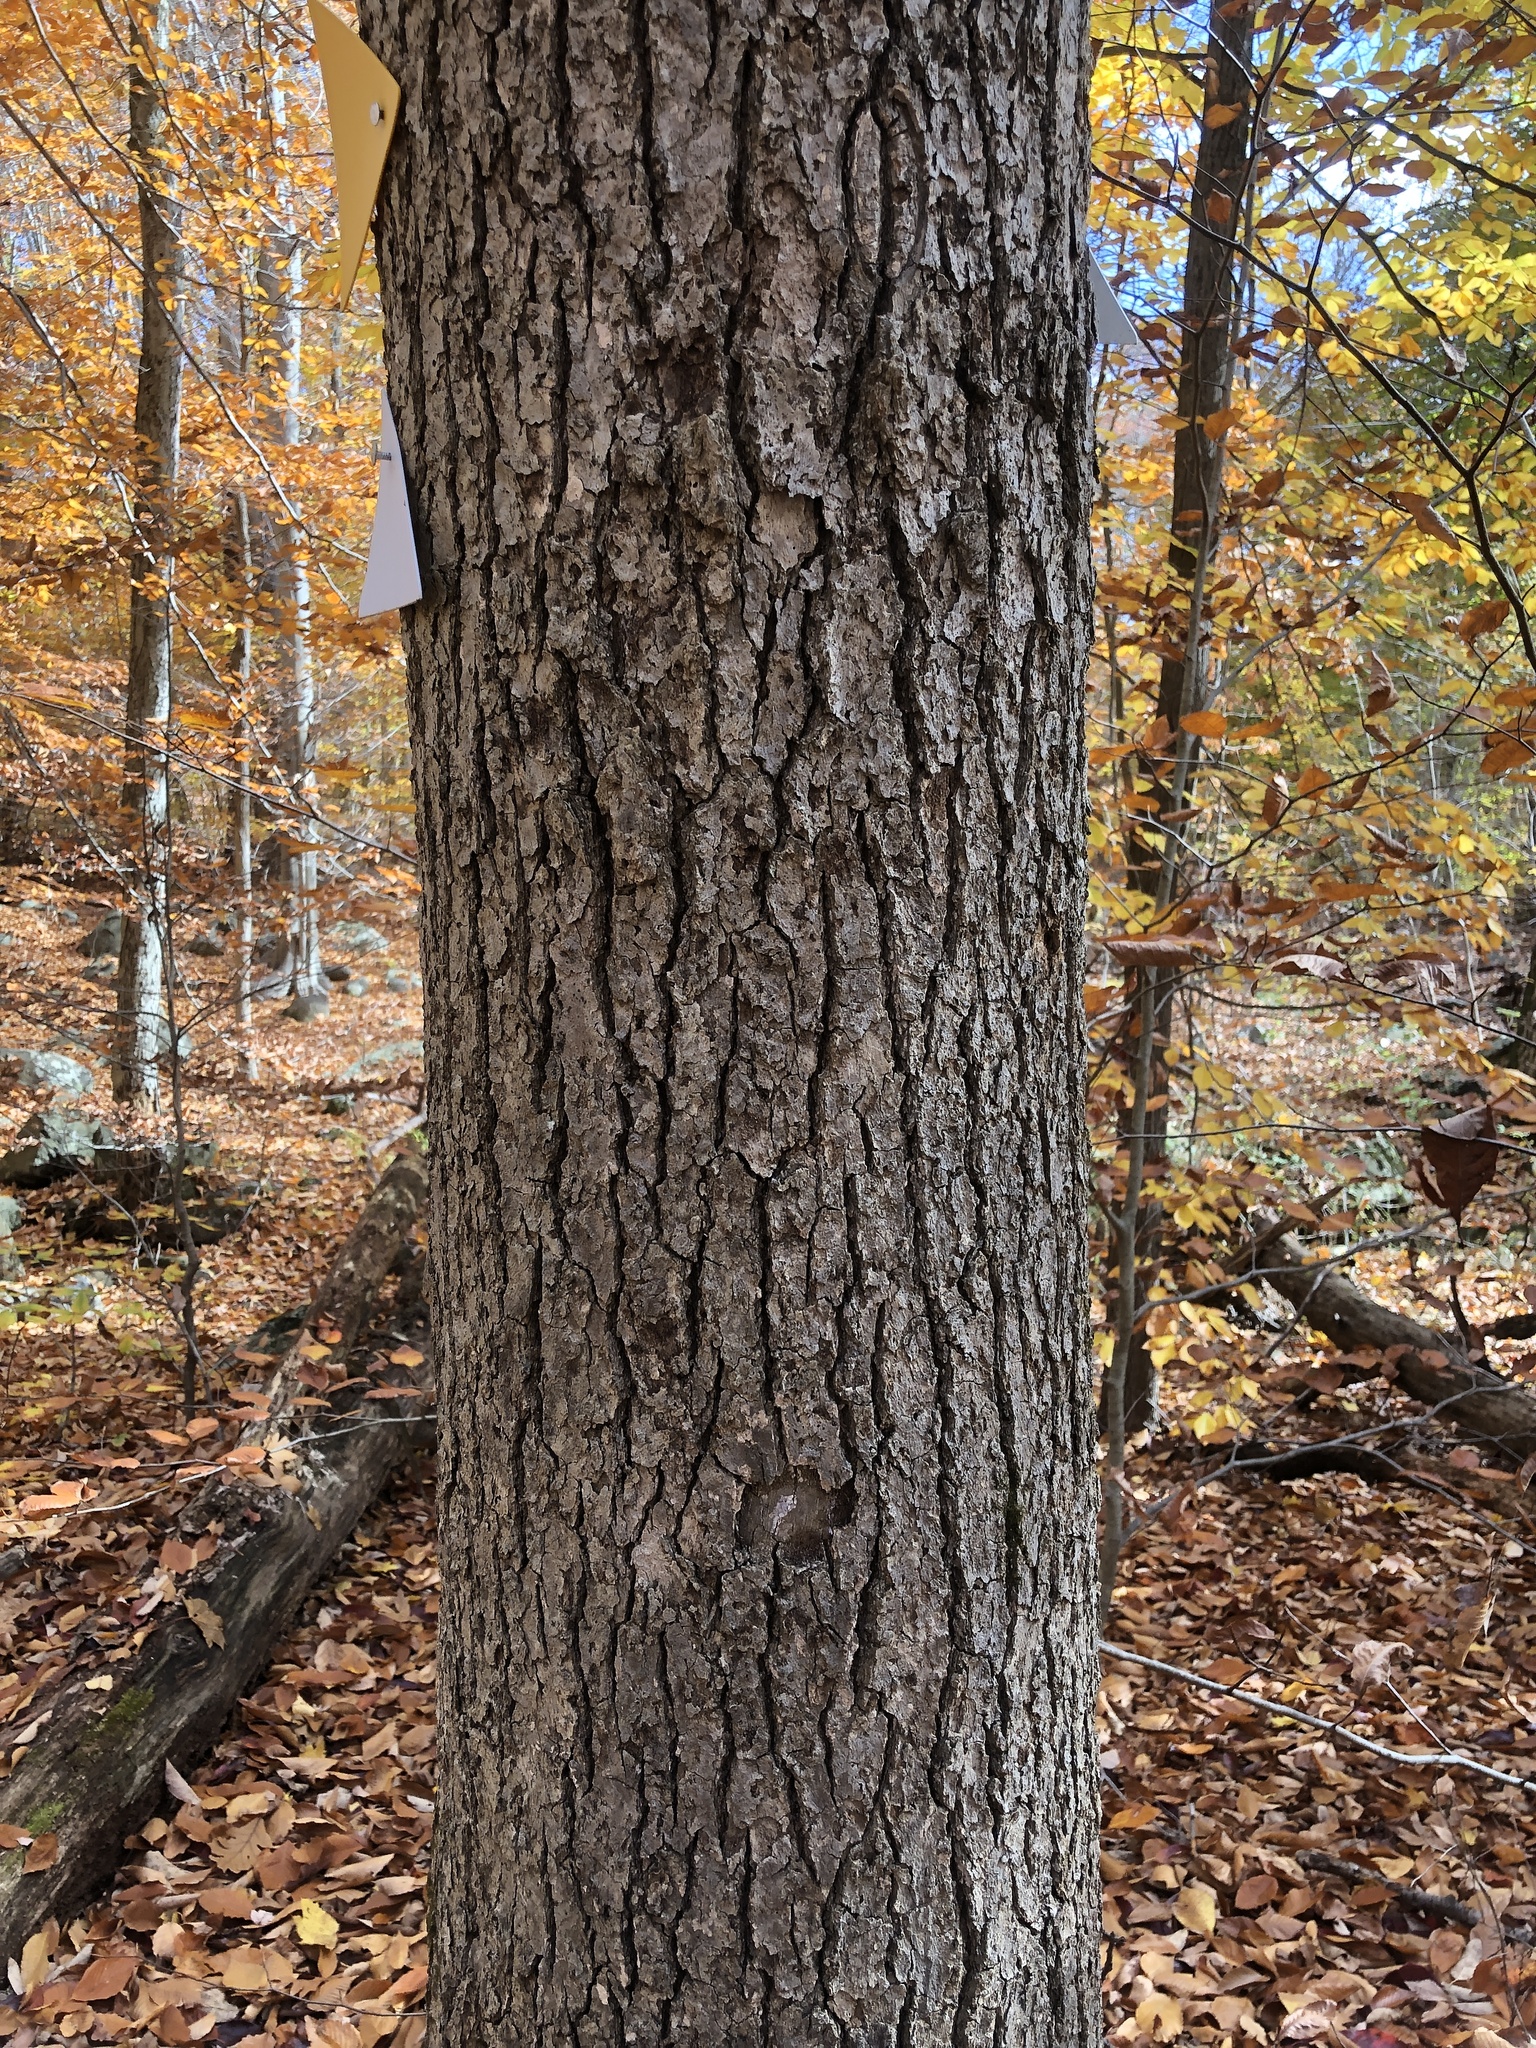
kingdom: Plantae
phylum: Tracheophyta
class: Magnoliopsida
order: Cornales
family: Nyssaceae
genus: Nyssa
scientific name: Nyssa sylvatica
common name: Black tupelo
